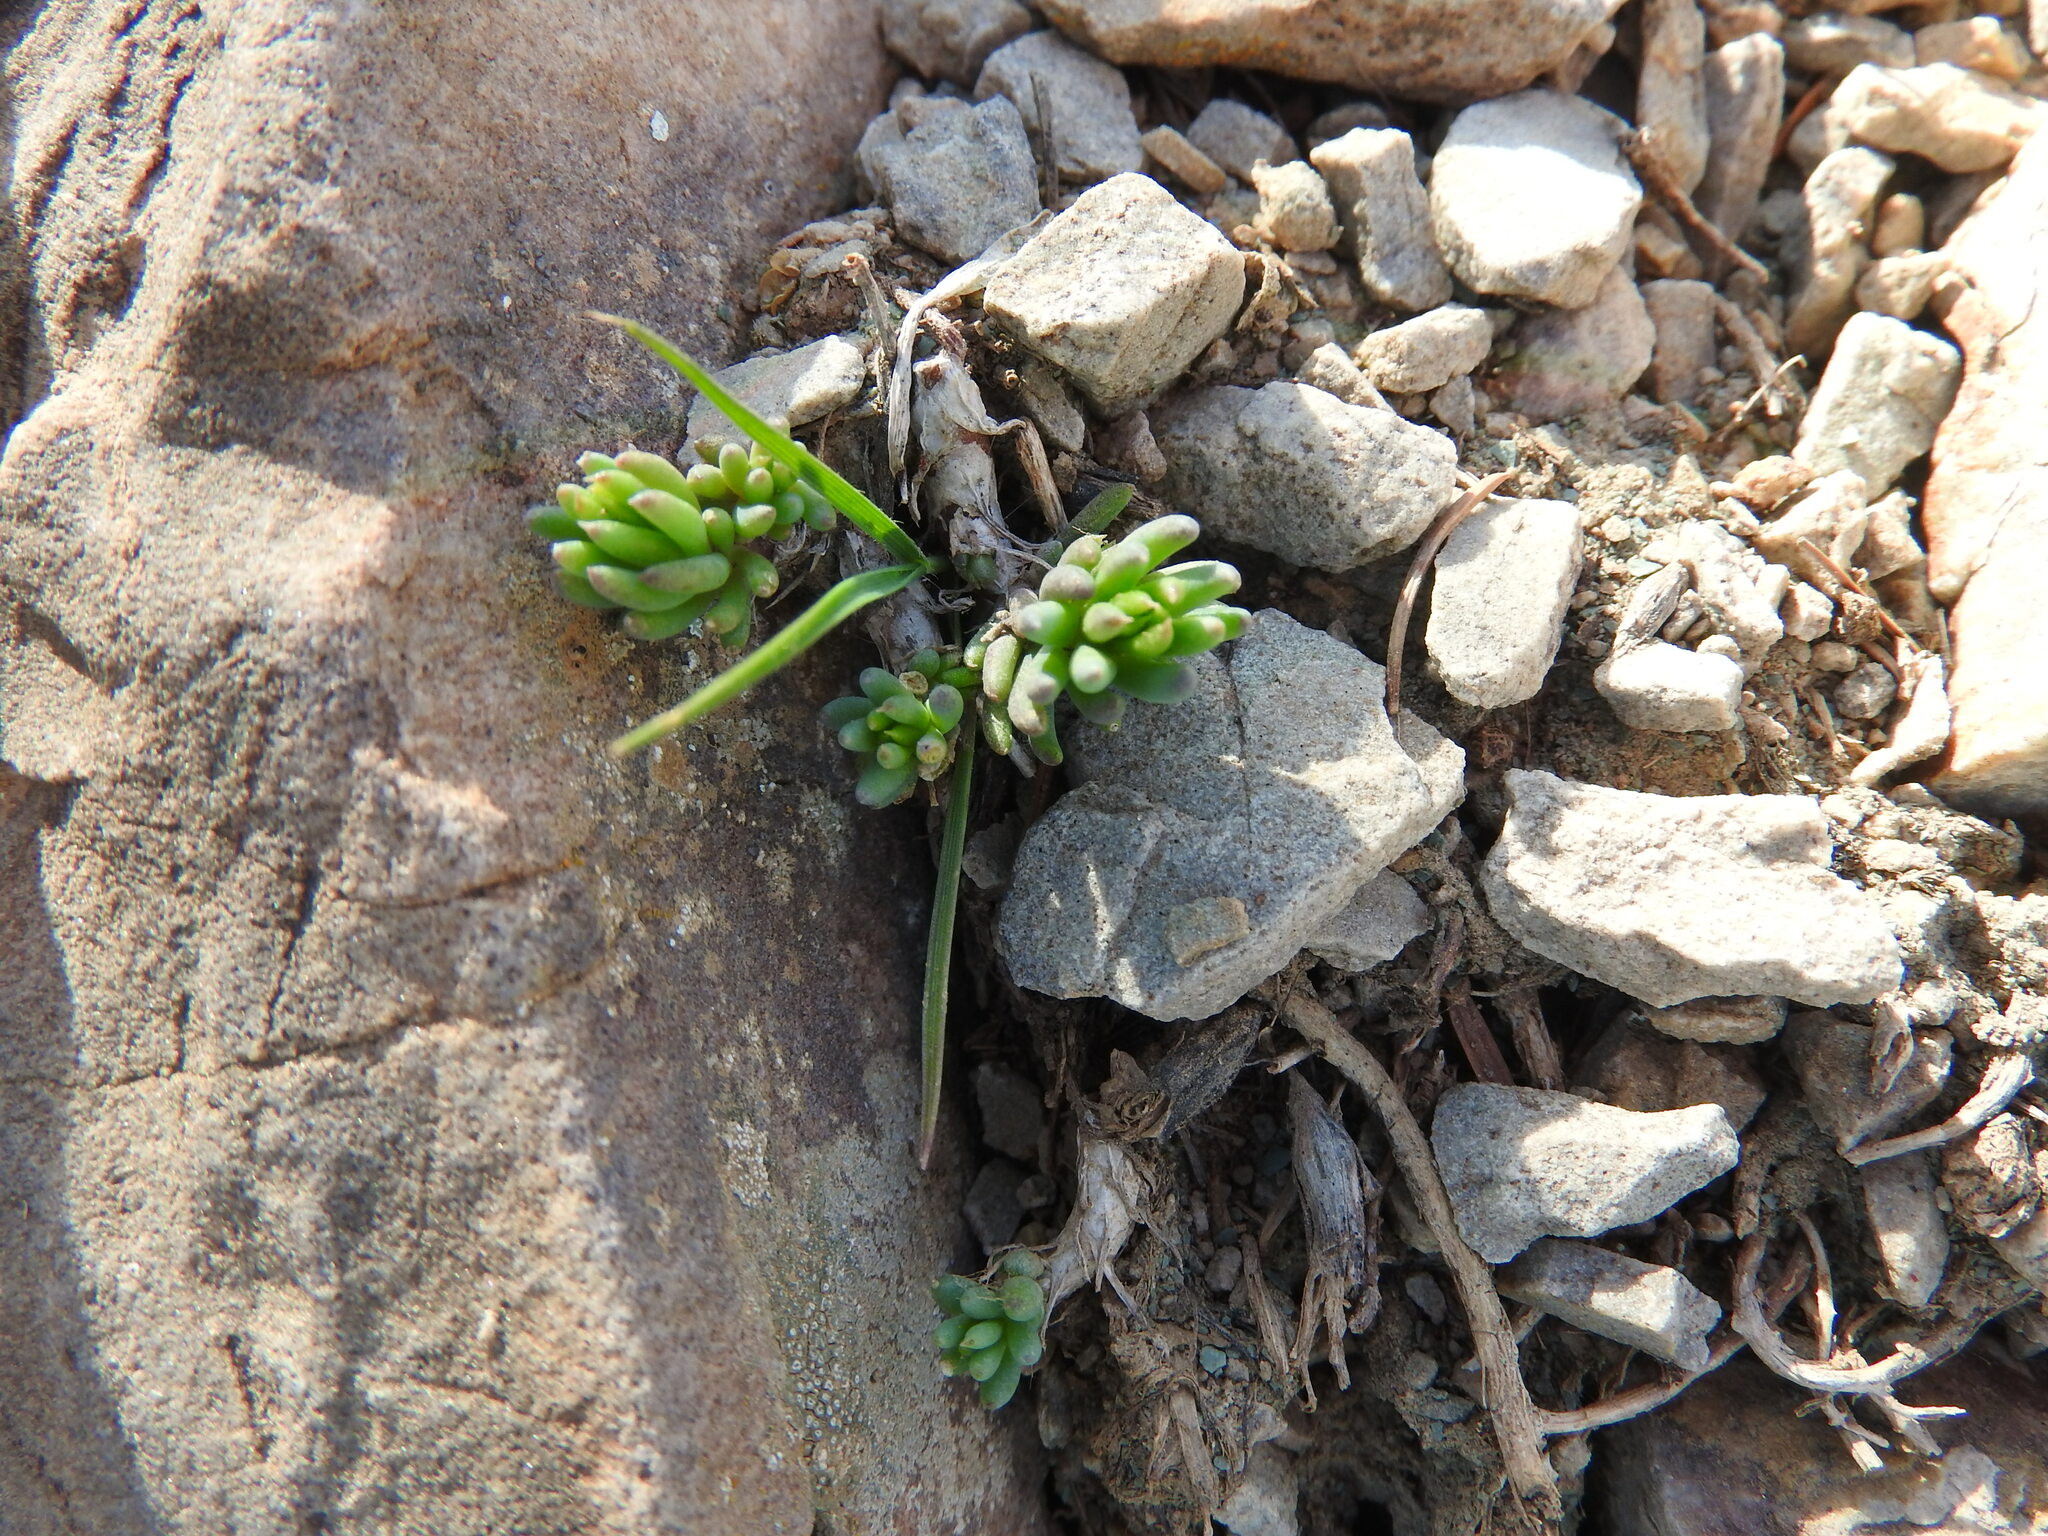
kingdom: Plantae
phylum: Tracheophyta
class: Magnoliopsida
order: Saxifragales
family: Crassulaceae
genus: Petrosedum
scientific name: Petrosedum amplexicaule
